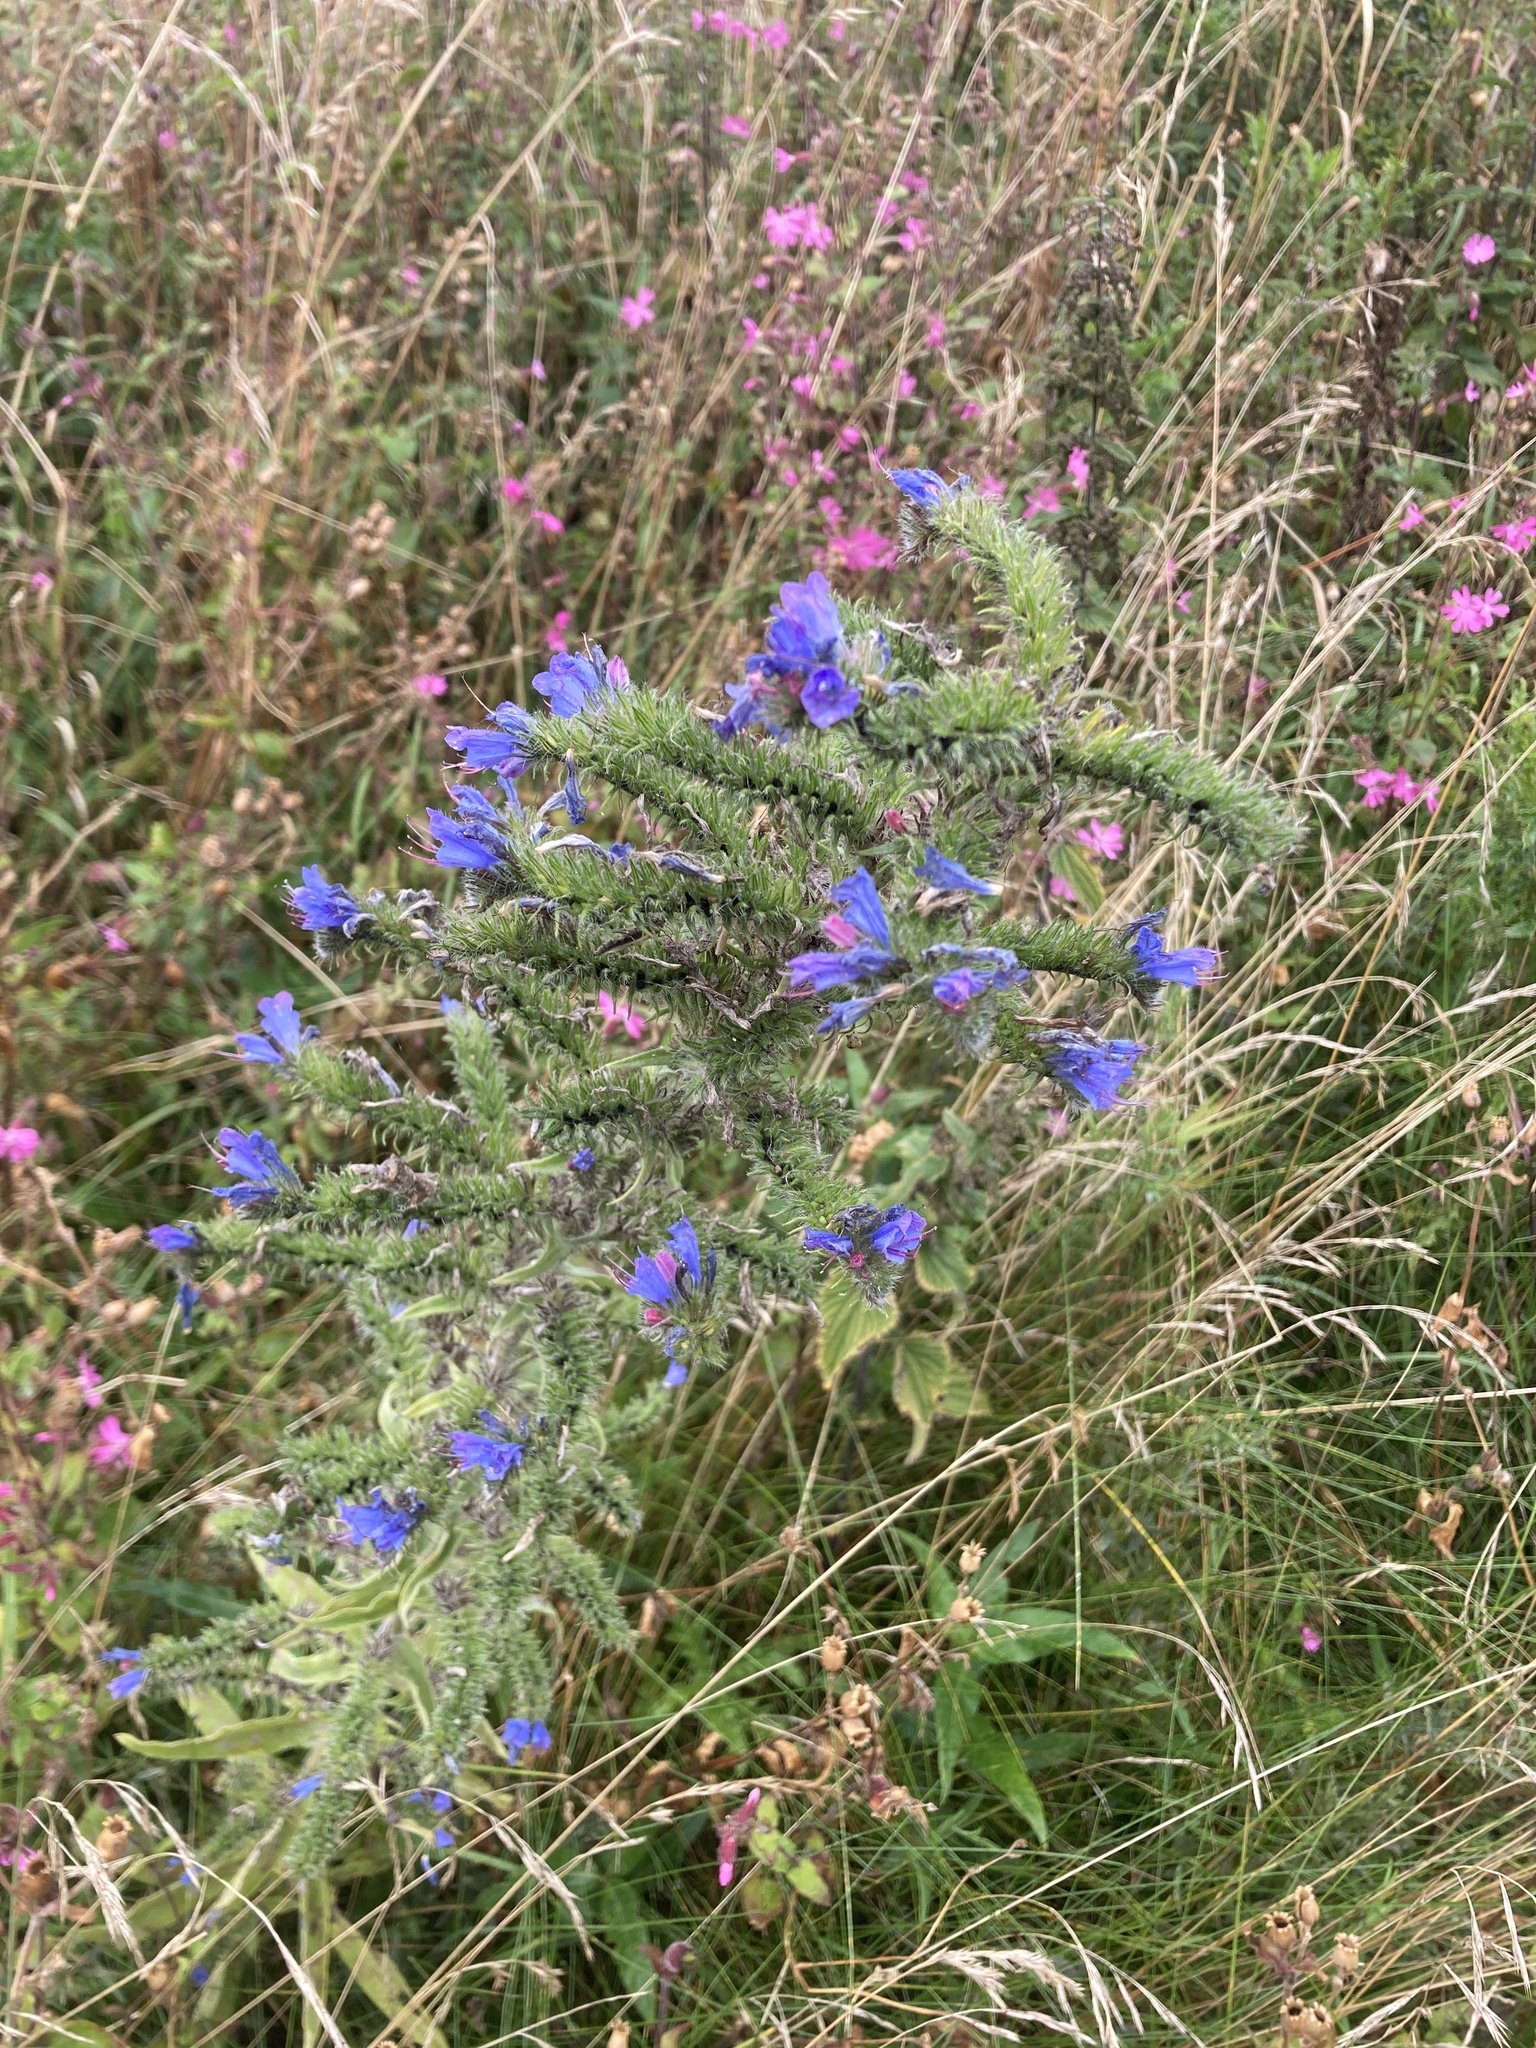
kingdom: Plantae
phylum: Tracheophyta
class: Magnoliopsida
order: Boraginales
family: Boraginaceae
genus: Echium
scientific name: Echium vulgare
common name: Common viper's bugloss
